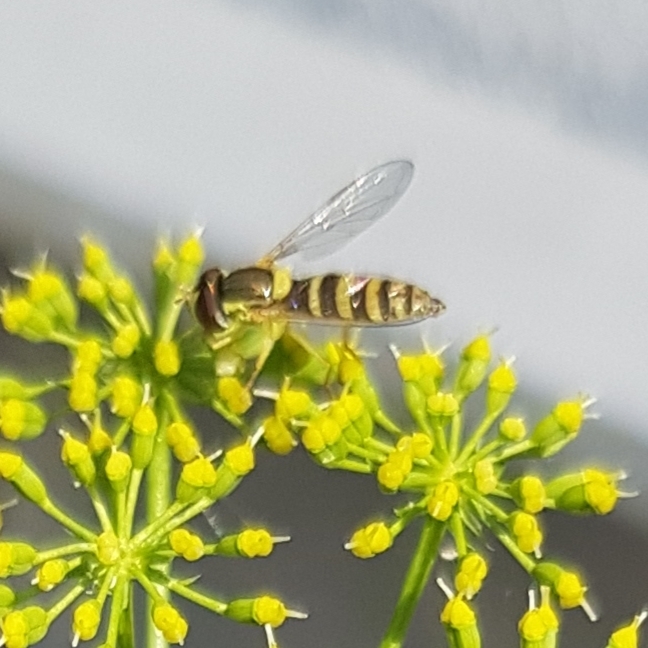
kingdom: Animalia
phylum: Arthropoda
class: Insecta
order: Diptera
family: Syrphidae
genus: Sphaerophoria
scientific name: Sphaerophoria
